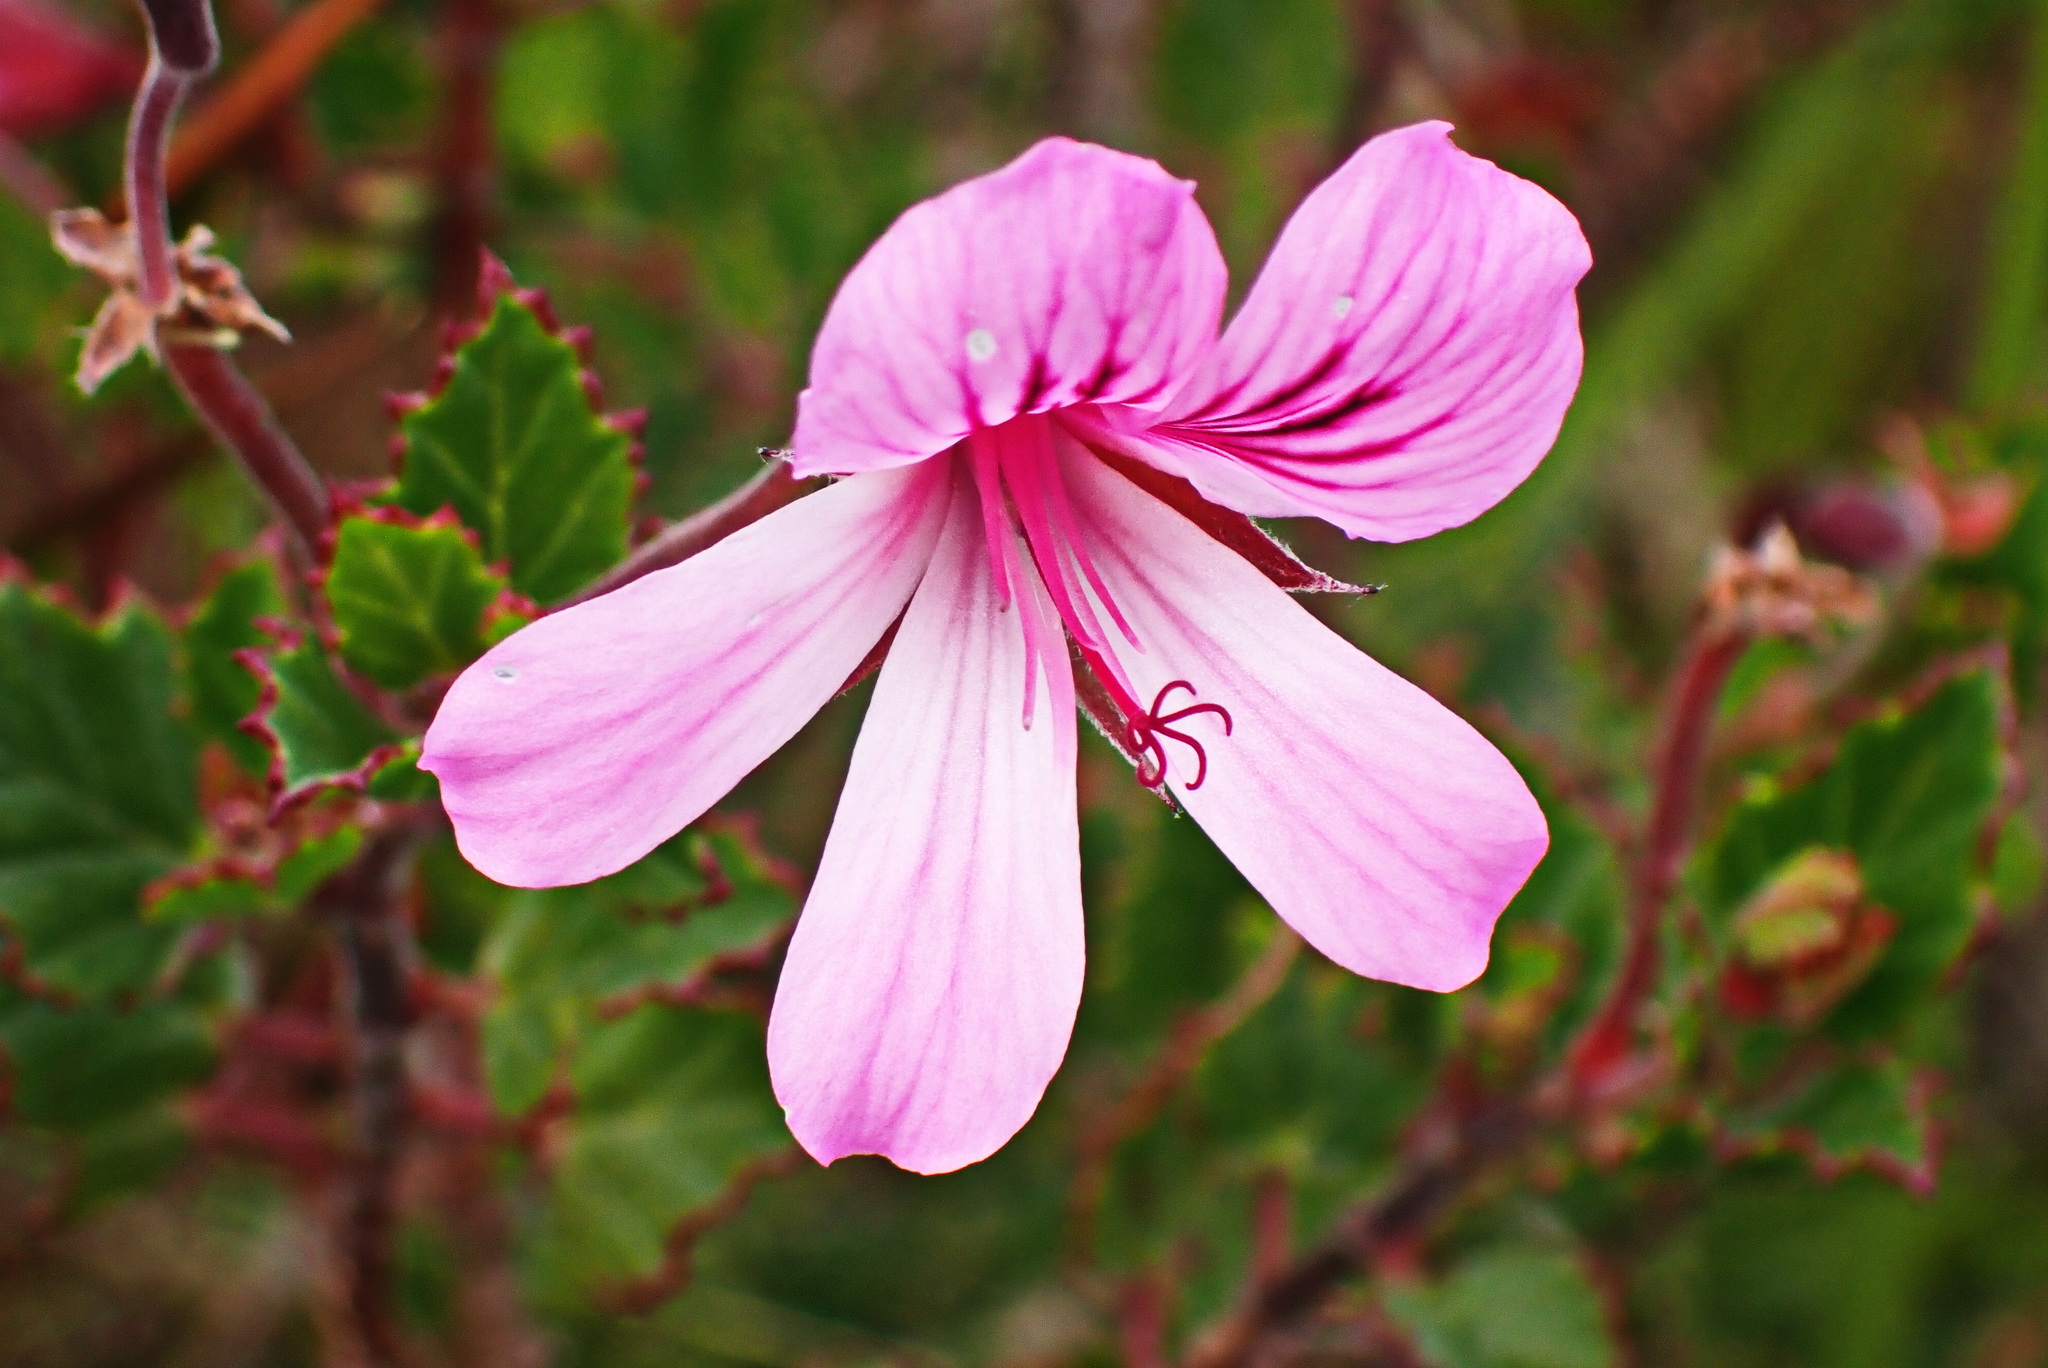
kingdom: Plantae
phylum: Tracheophyta
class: Magnoliopsida
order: Geraniales
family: Geraniaceae
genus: Pelargonium
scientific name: Pelargonium betulinum
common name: Birch-leaf pelargonium
